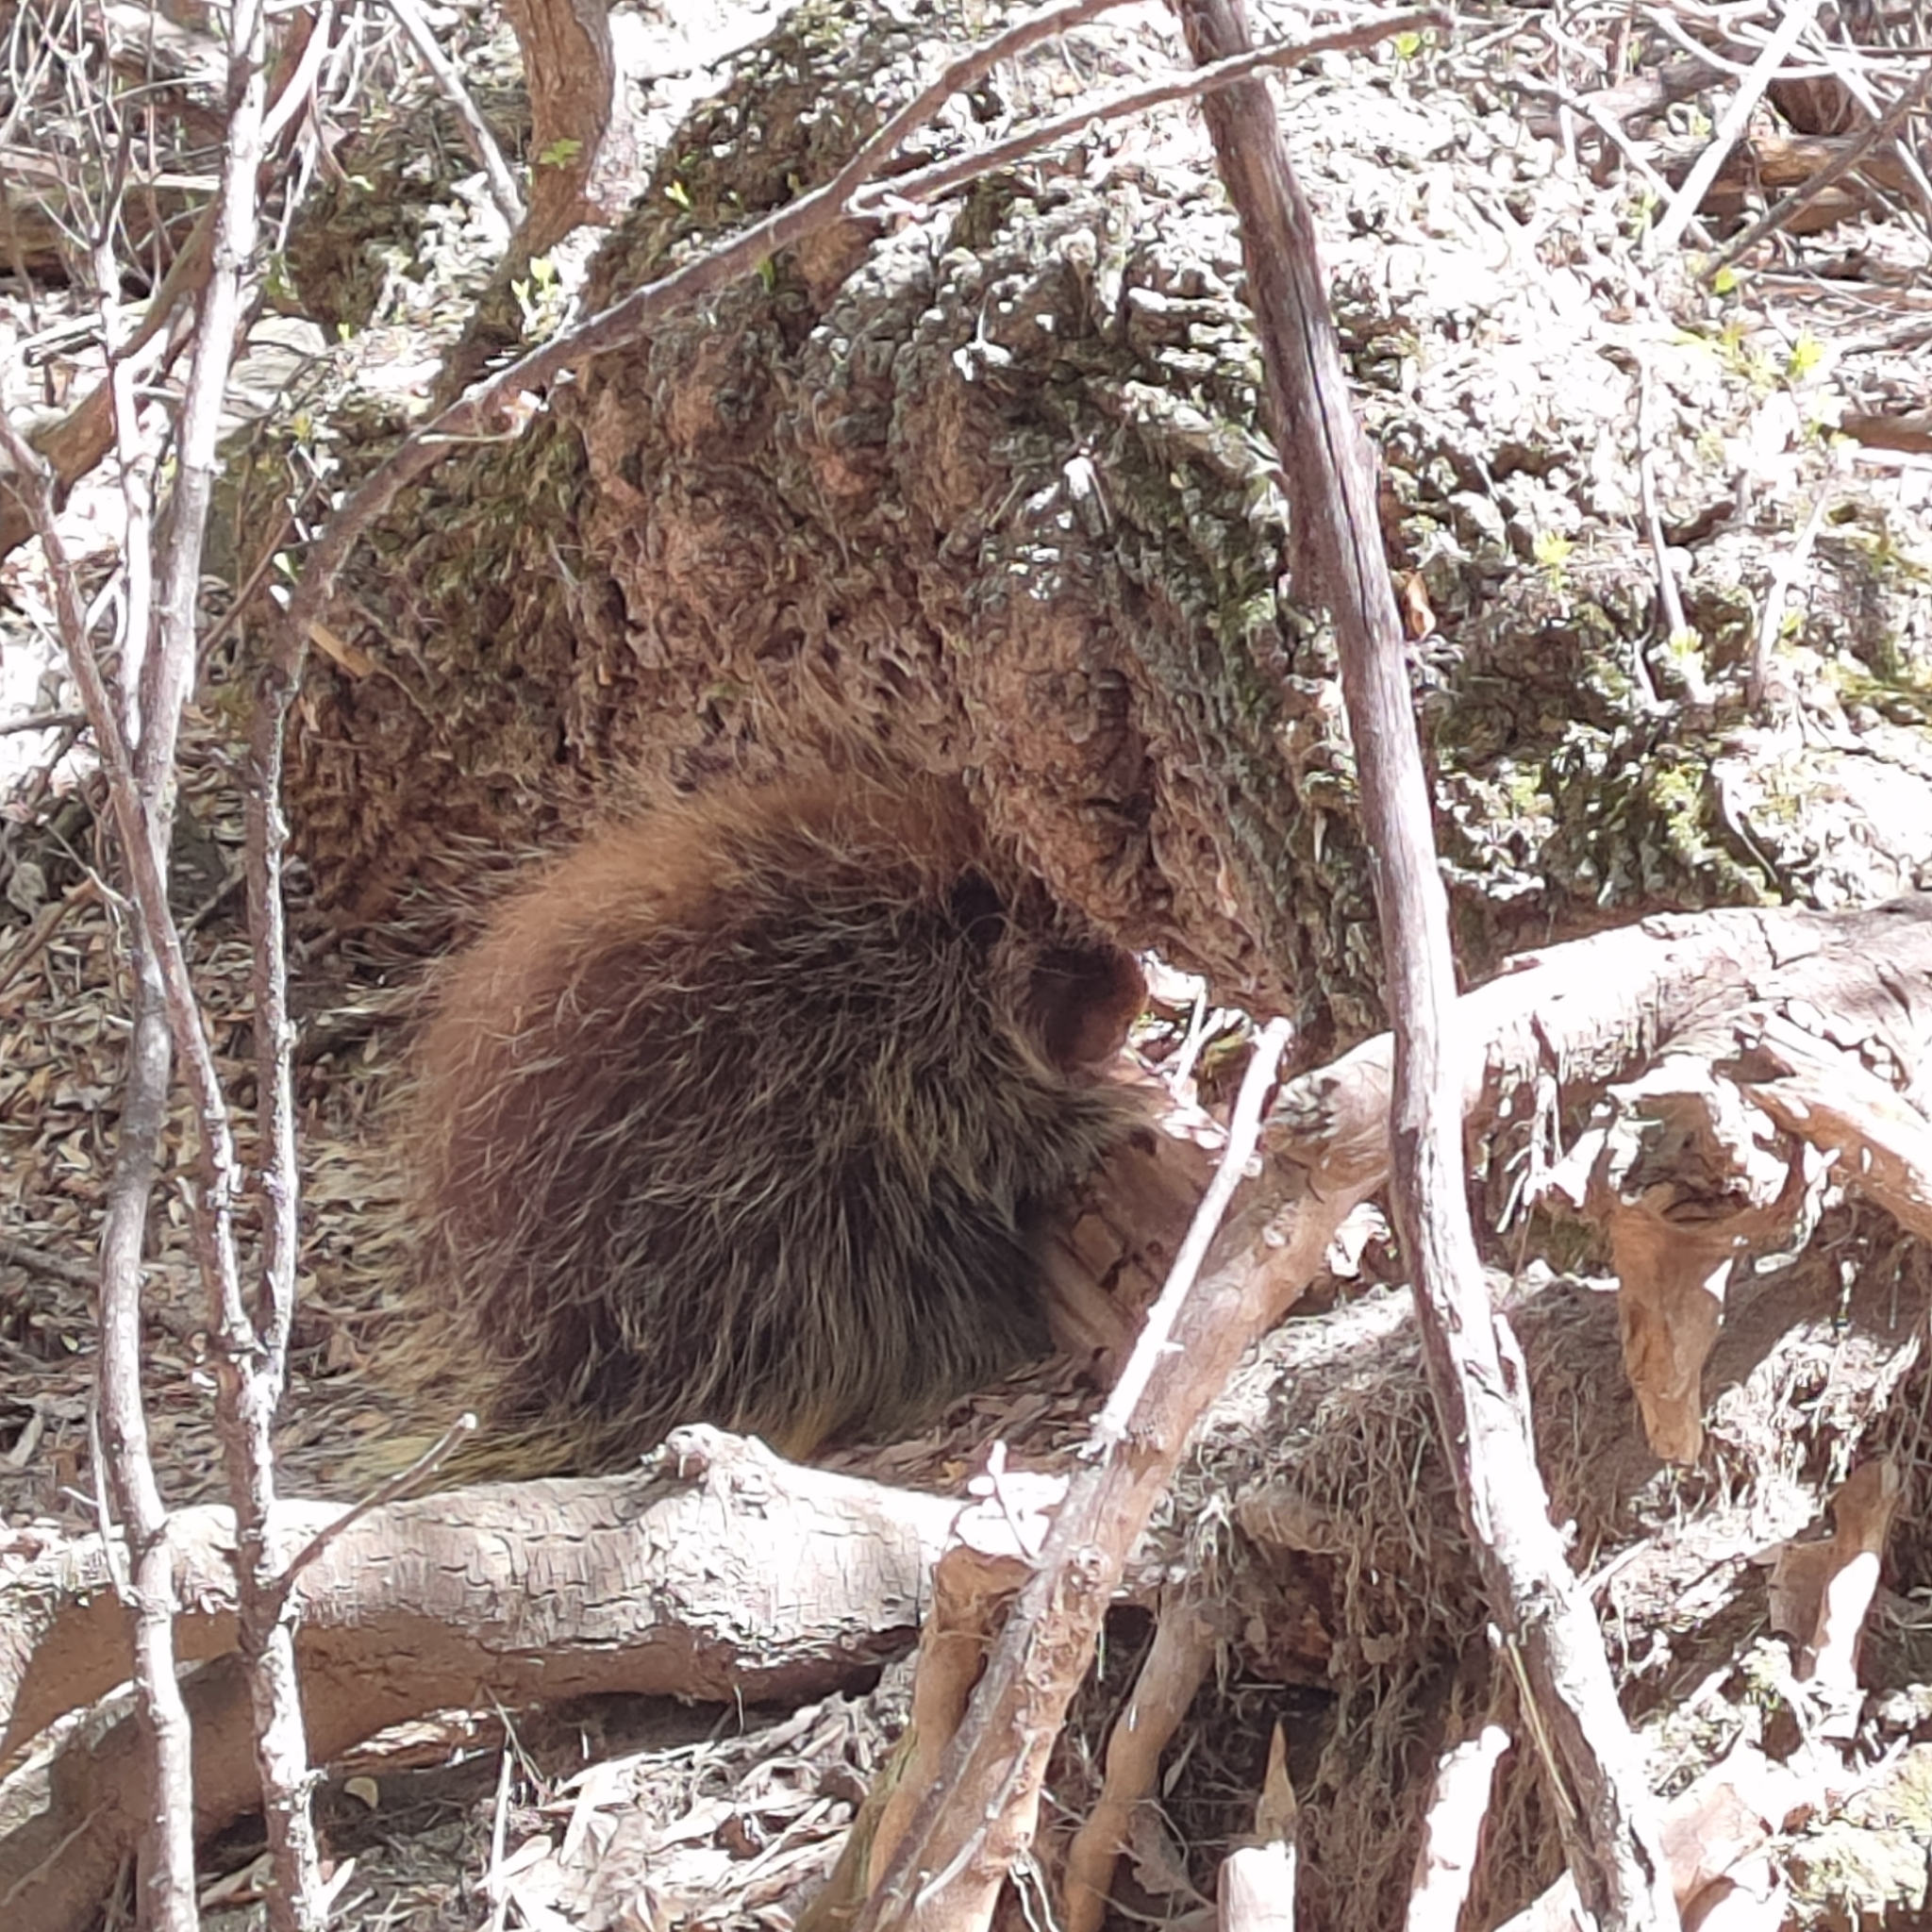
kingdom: Animalia
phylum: Chordata
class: Mammalia
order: Rodentia
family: Erethizontidae
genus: Erethizon
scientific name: Erethizon dorsatus
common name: North american porcupine
